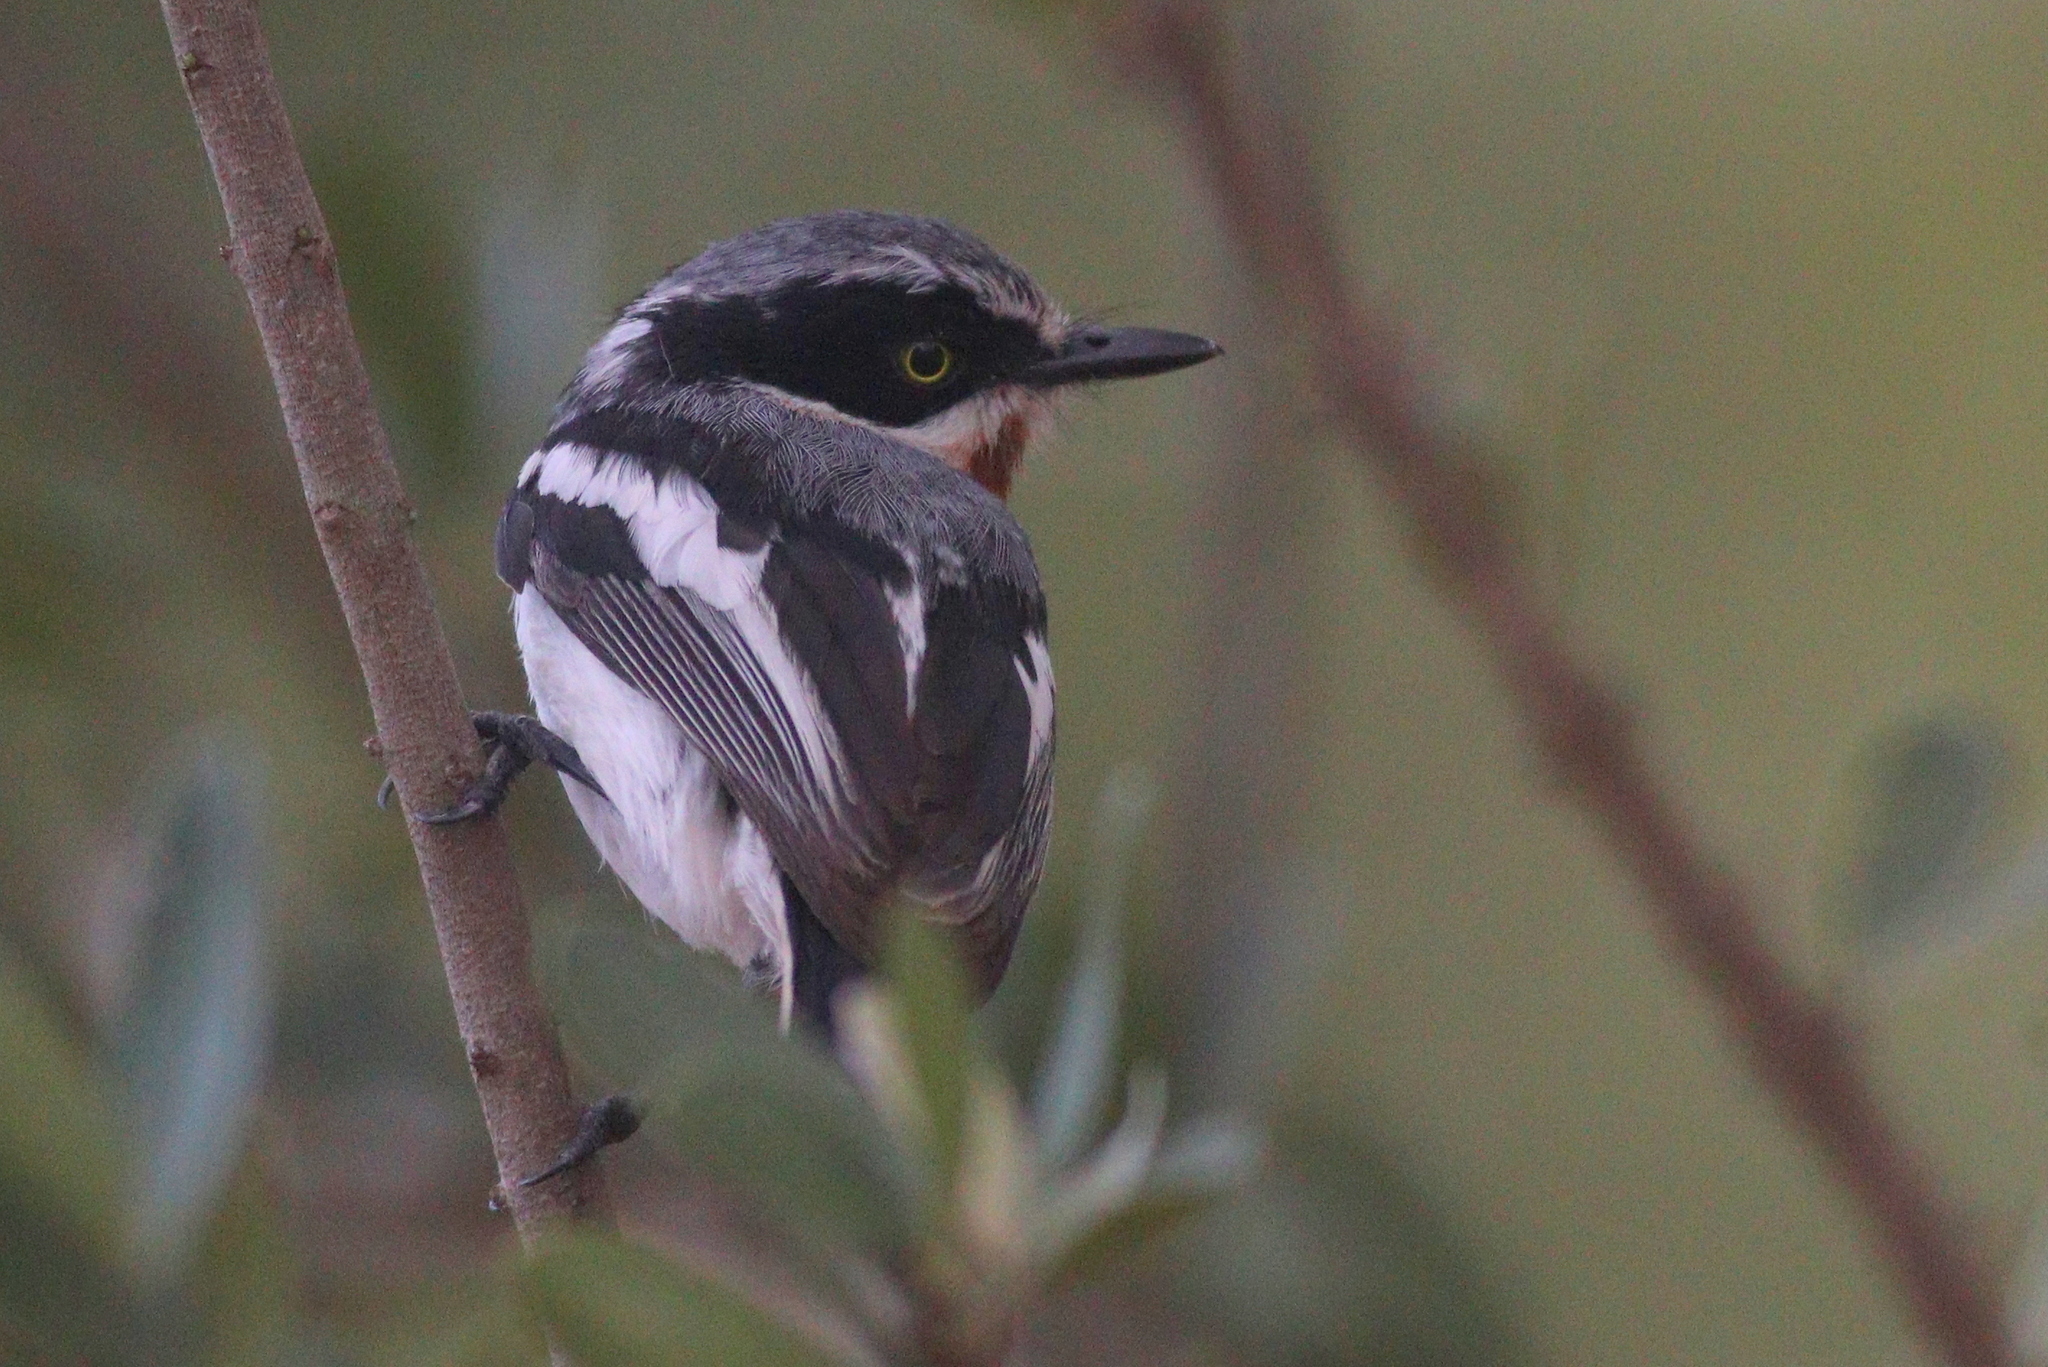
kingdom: Animalia
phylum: Chordata
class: Aves
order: Passeriformes
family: Platysteiridae
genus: Batis
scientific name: Batis molitor
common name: Chinspot batis
